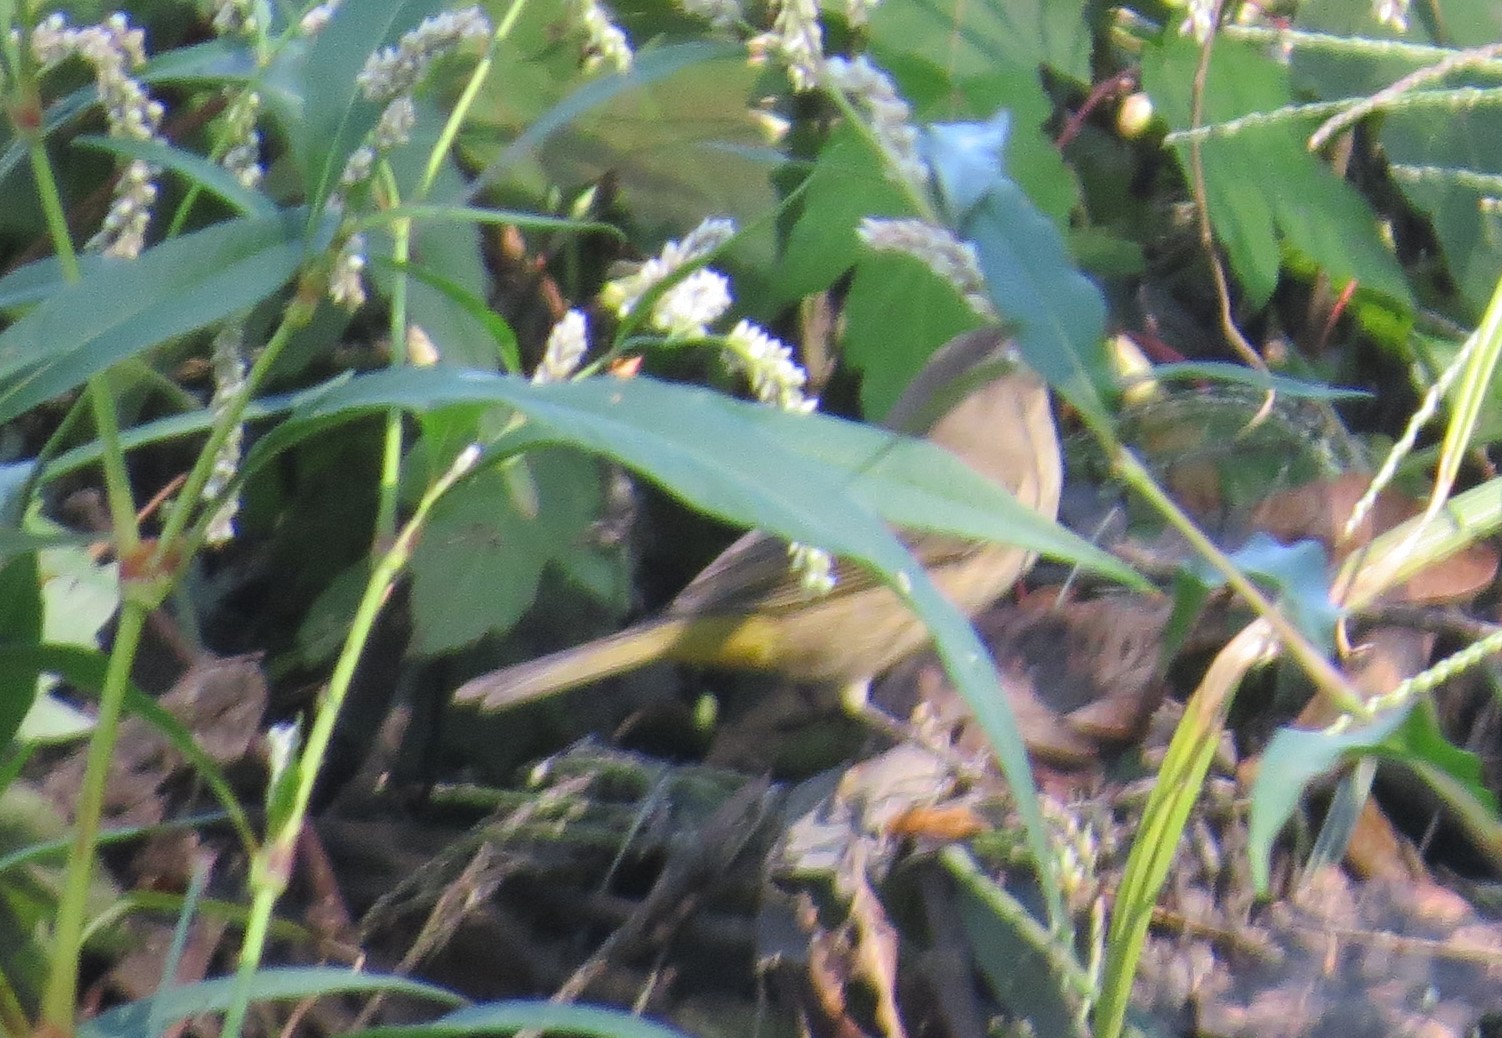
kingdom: Animalia
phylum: Chordata
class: Aves
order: Passeriformes
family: Parulidae
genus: Setophaga
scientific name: Setophaga palmarum
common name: Palm warbler
